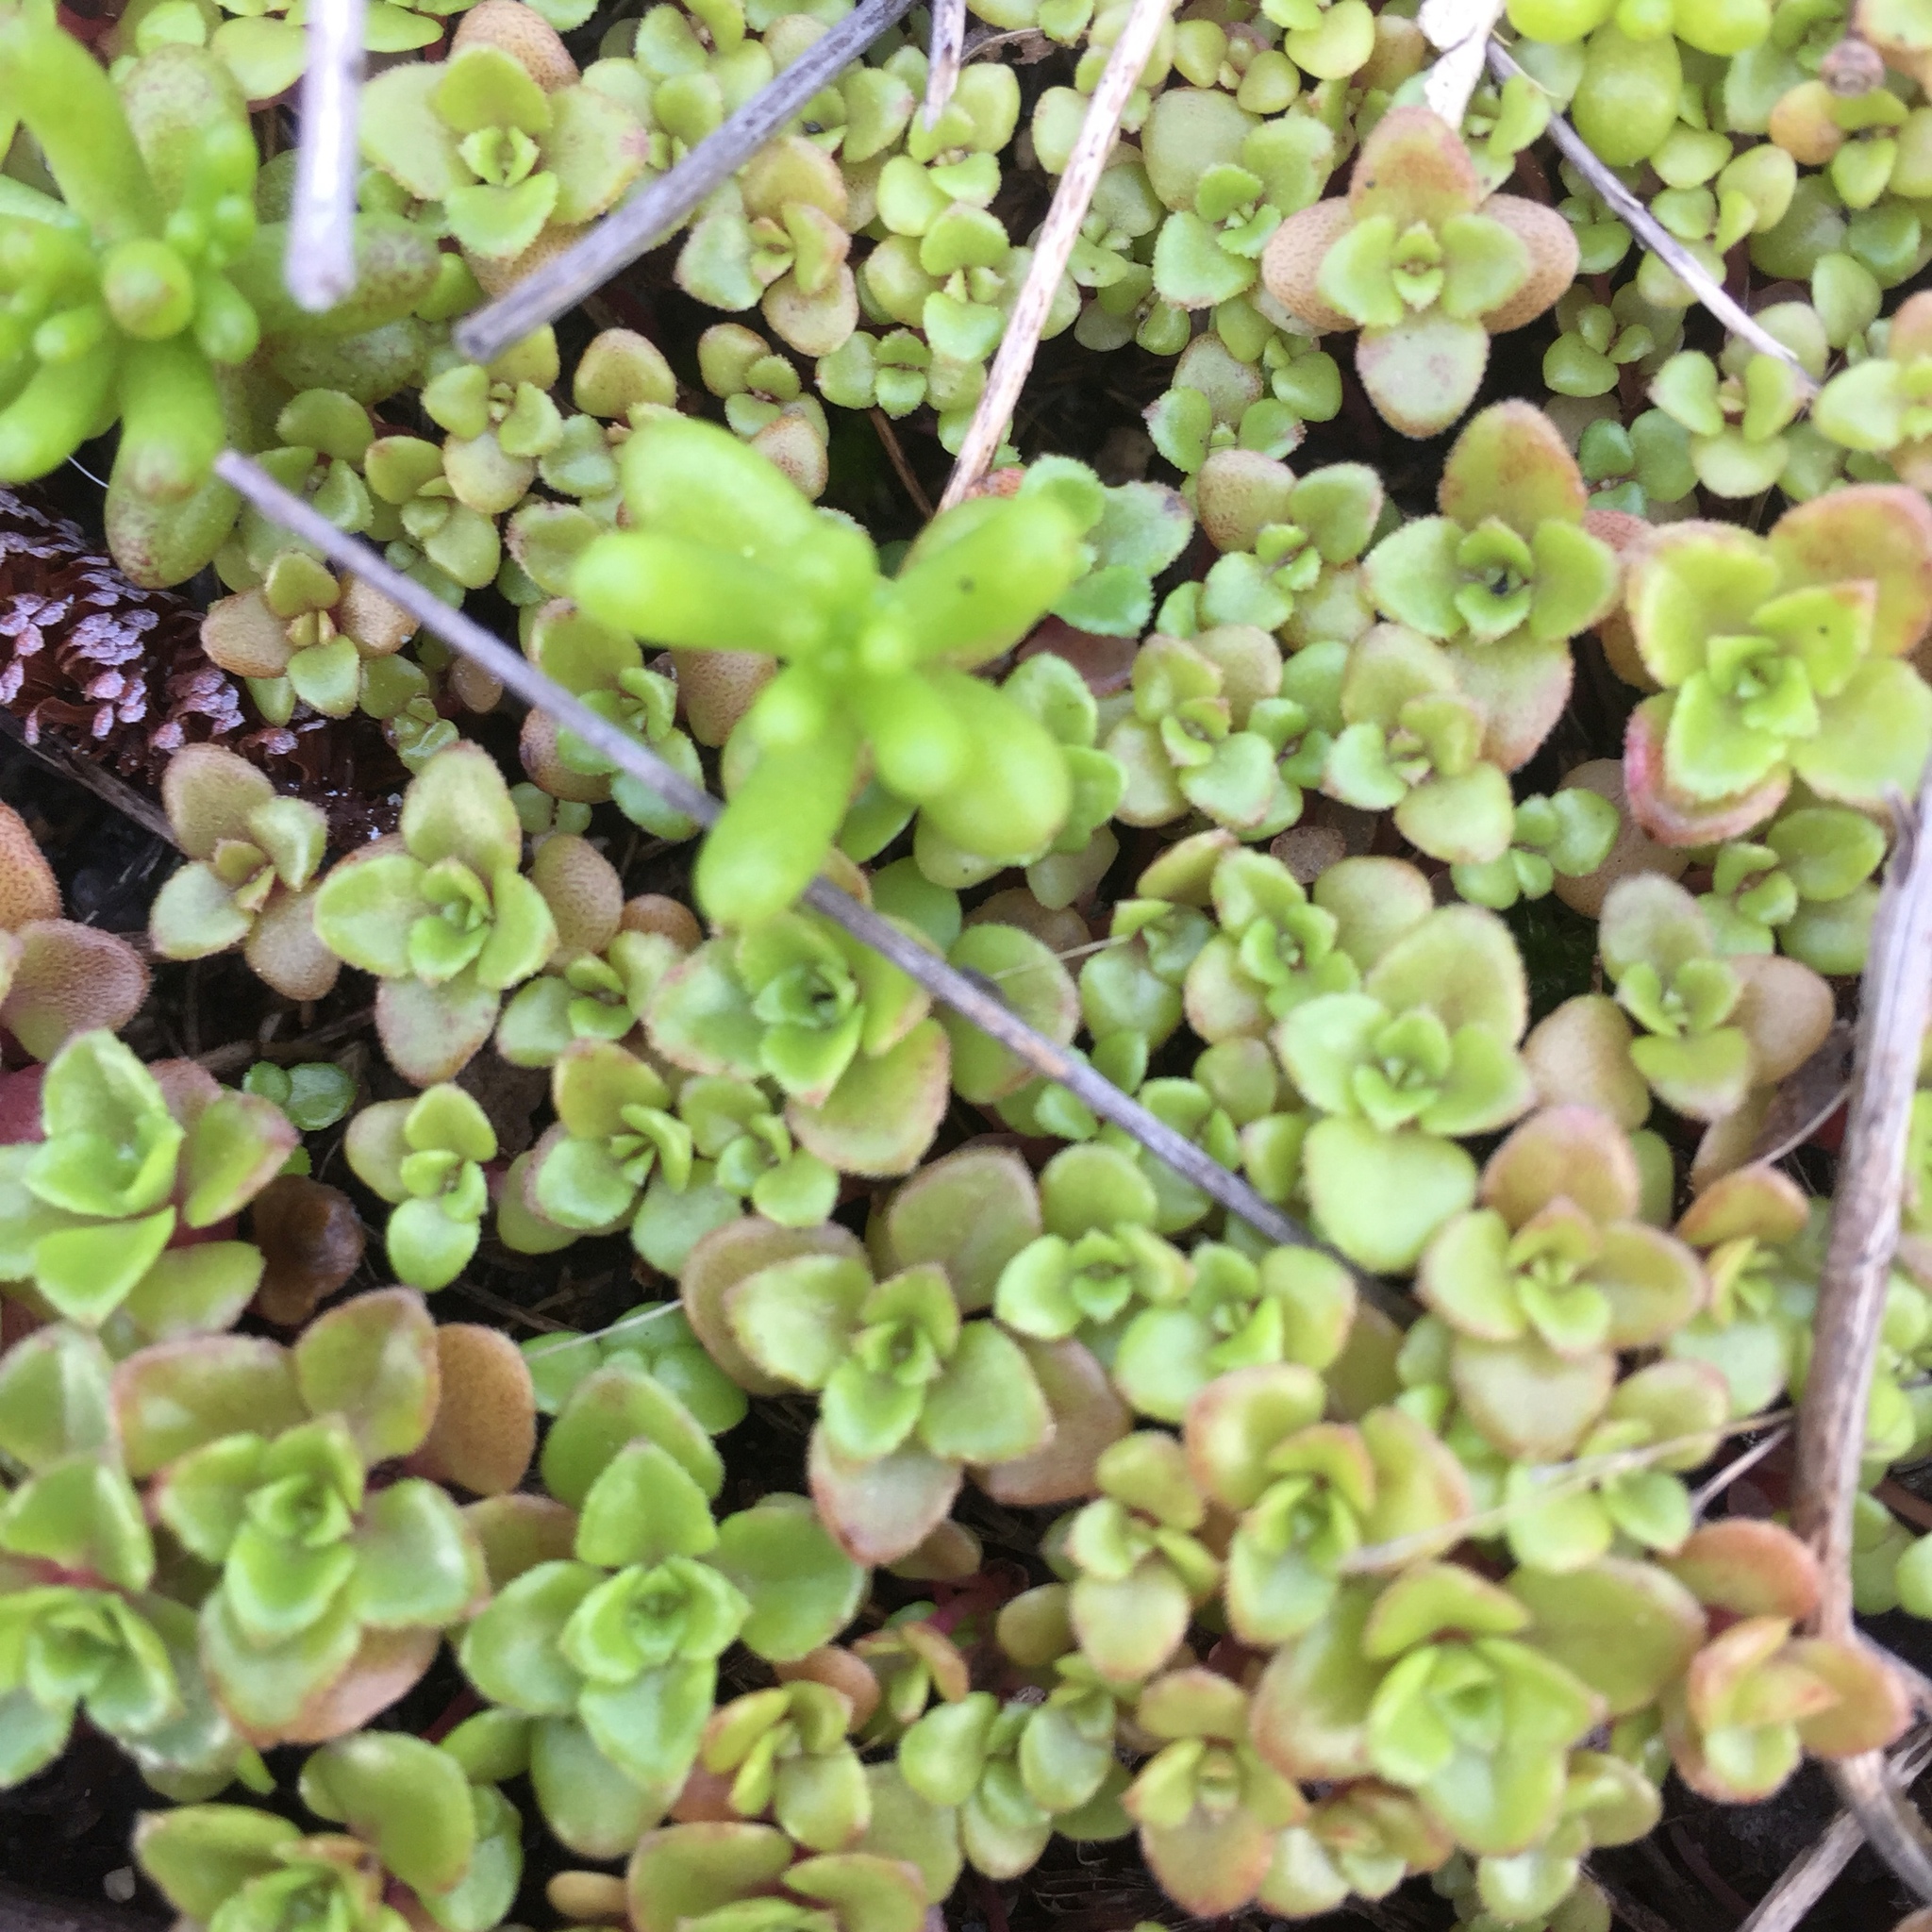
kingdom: Plantae
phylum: Tracheophyta
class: Magnoliopsida
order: Saxifragales
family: Crassulaceae
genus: Phedimus
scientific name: Phedimus stellatus
